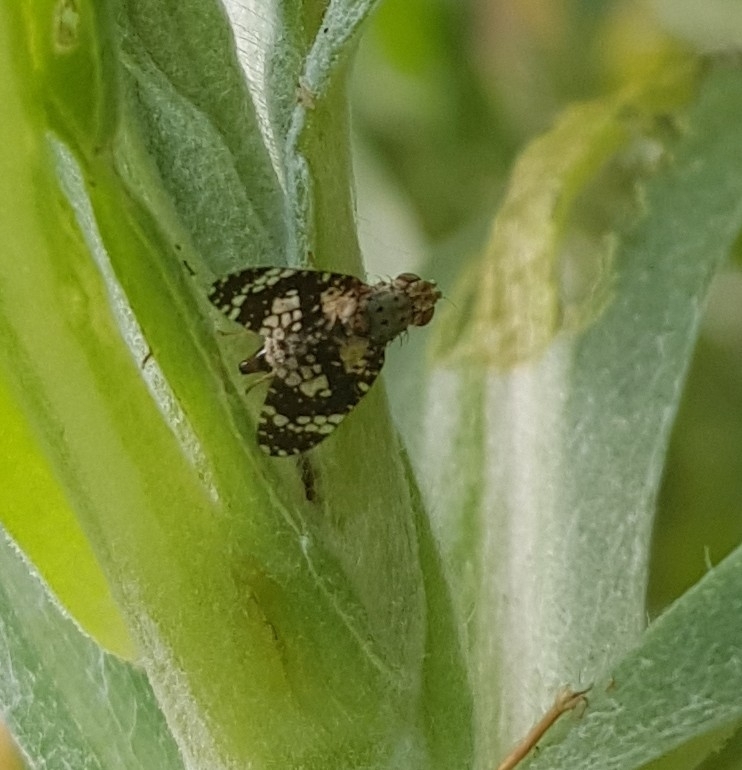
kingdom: Animalia
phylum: Arthropoda
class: Insecta
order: Diptera
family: Tephritidae
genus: Austrotephritis
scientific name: Austrotephritis
